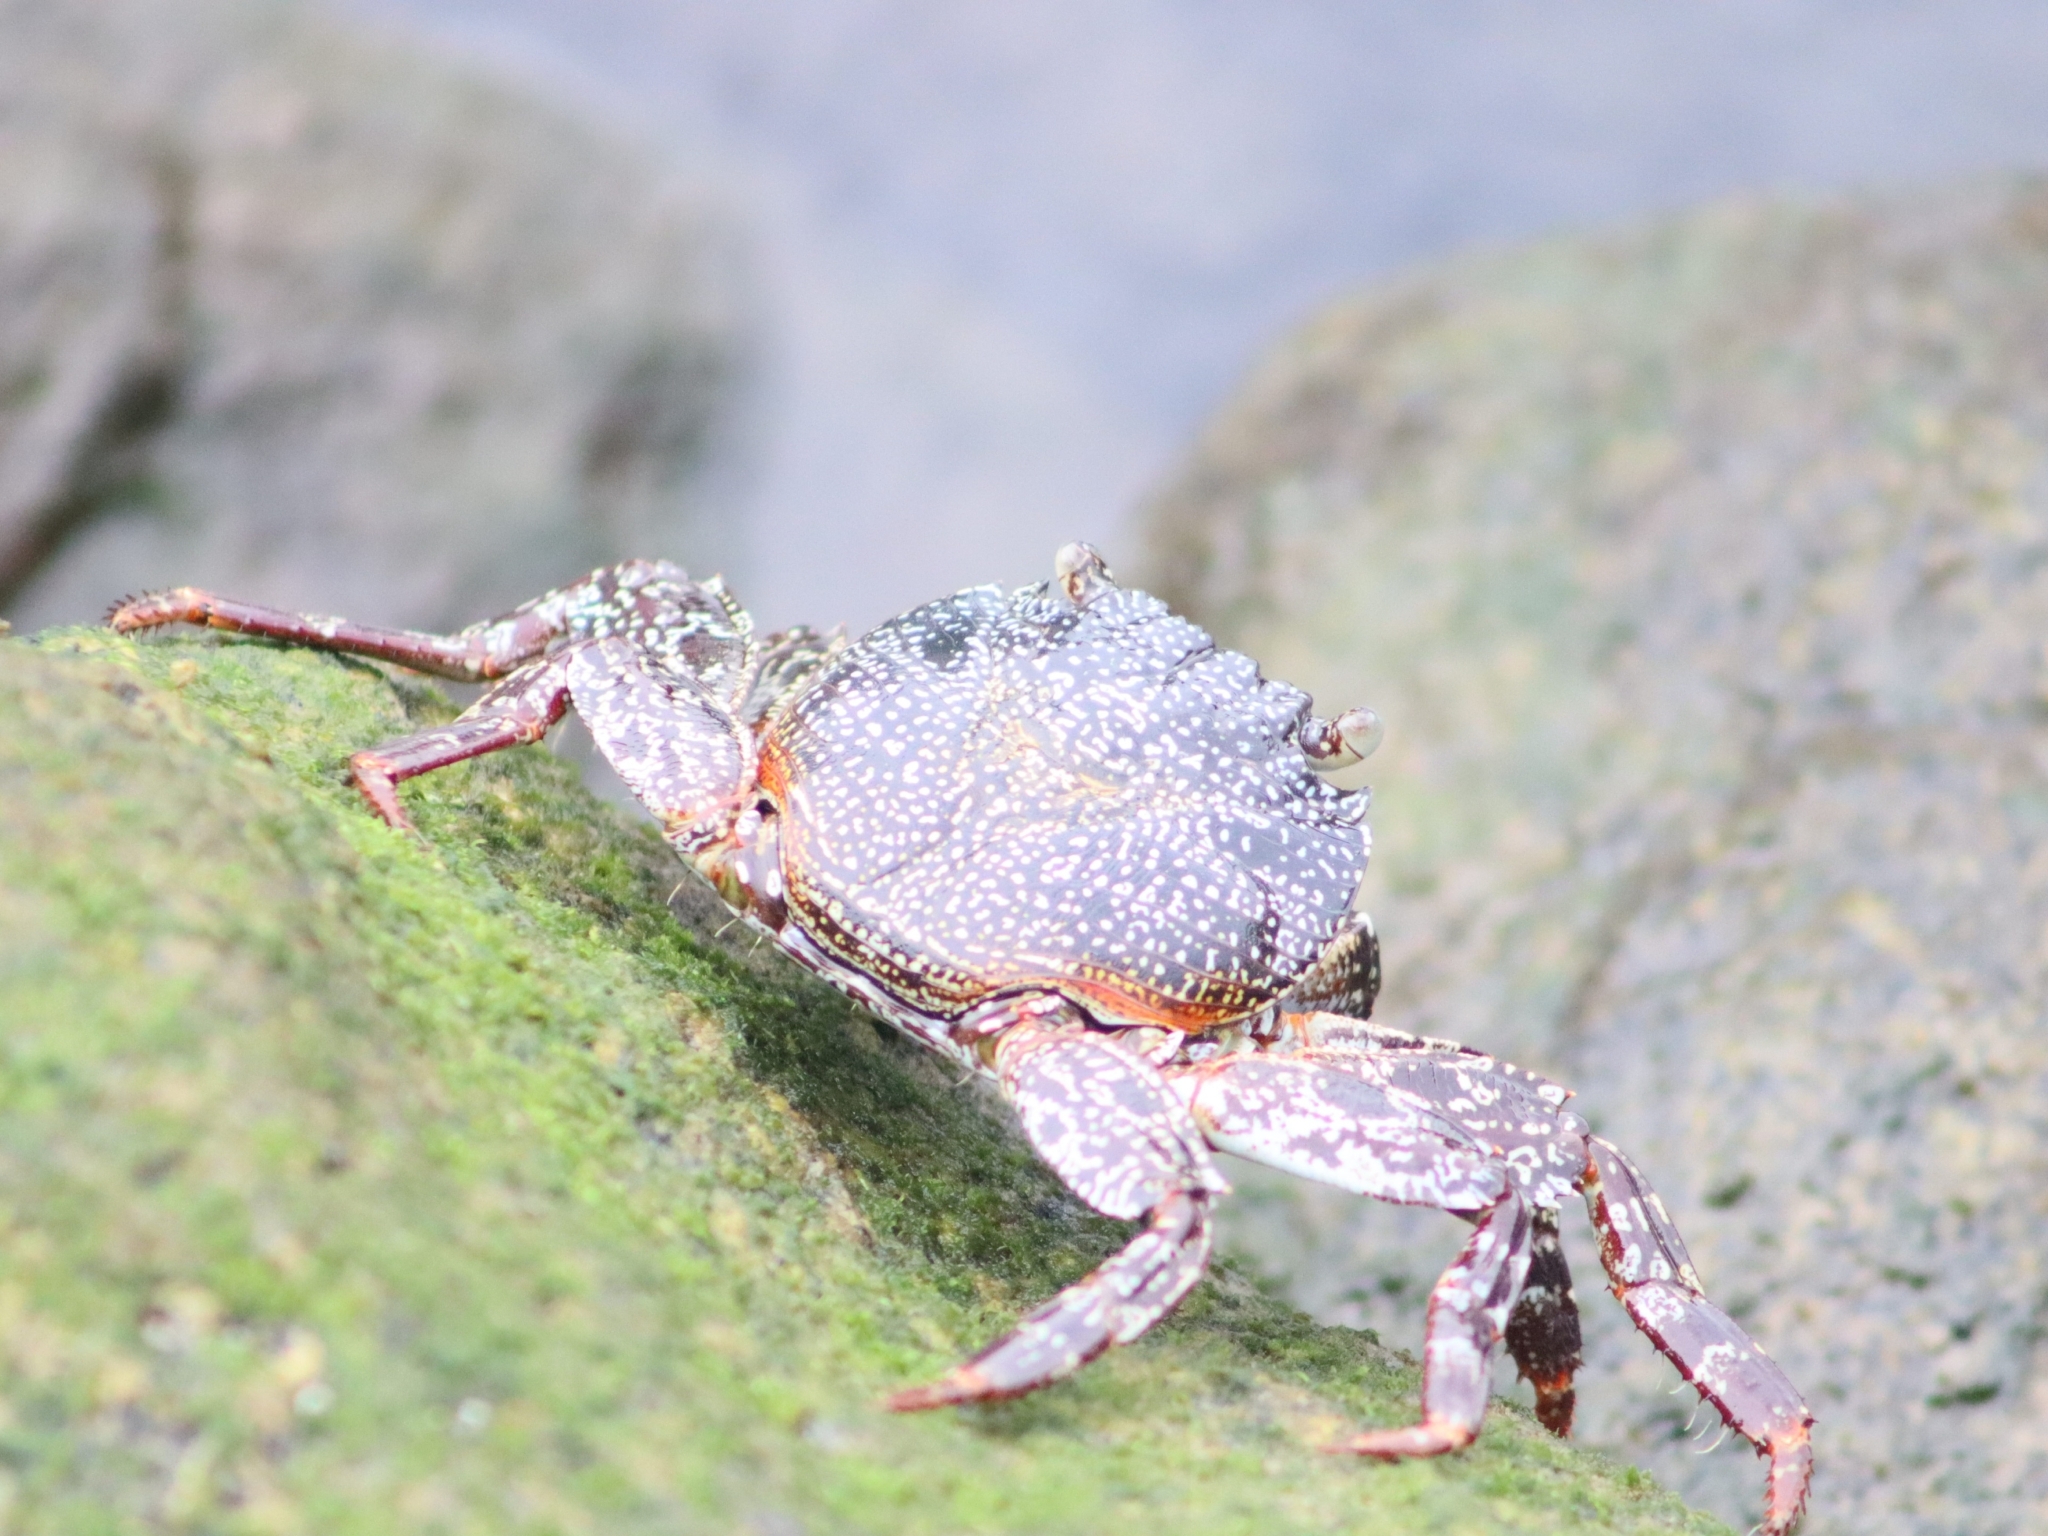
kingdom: Animalia
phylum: Arthropoda
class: Malacostraca
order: Decapoda
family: Grapsidae
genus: Grapsus
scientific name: Grapsus grapsus
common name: Sally lightfoot
